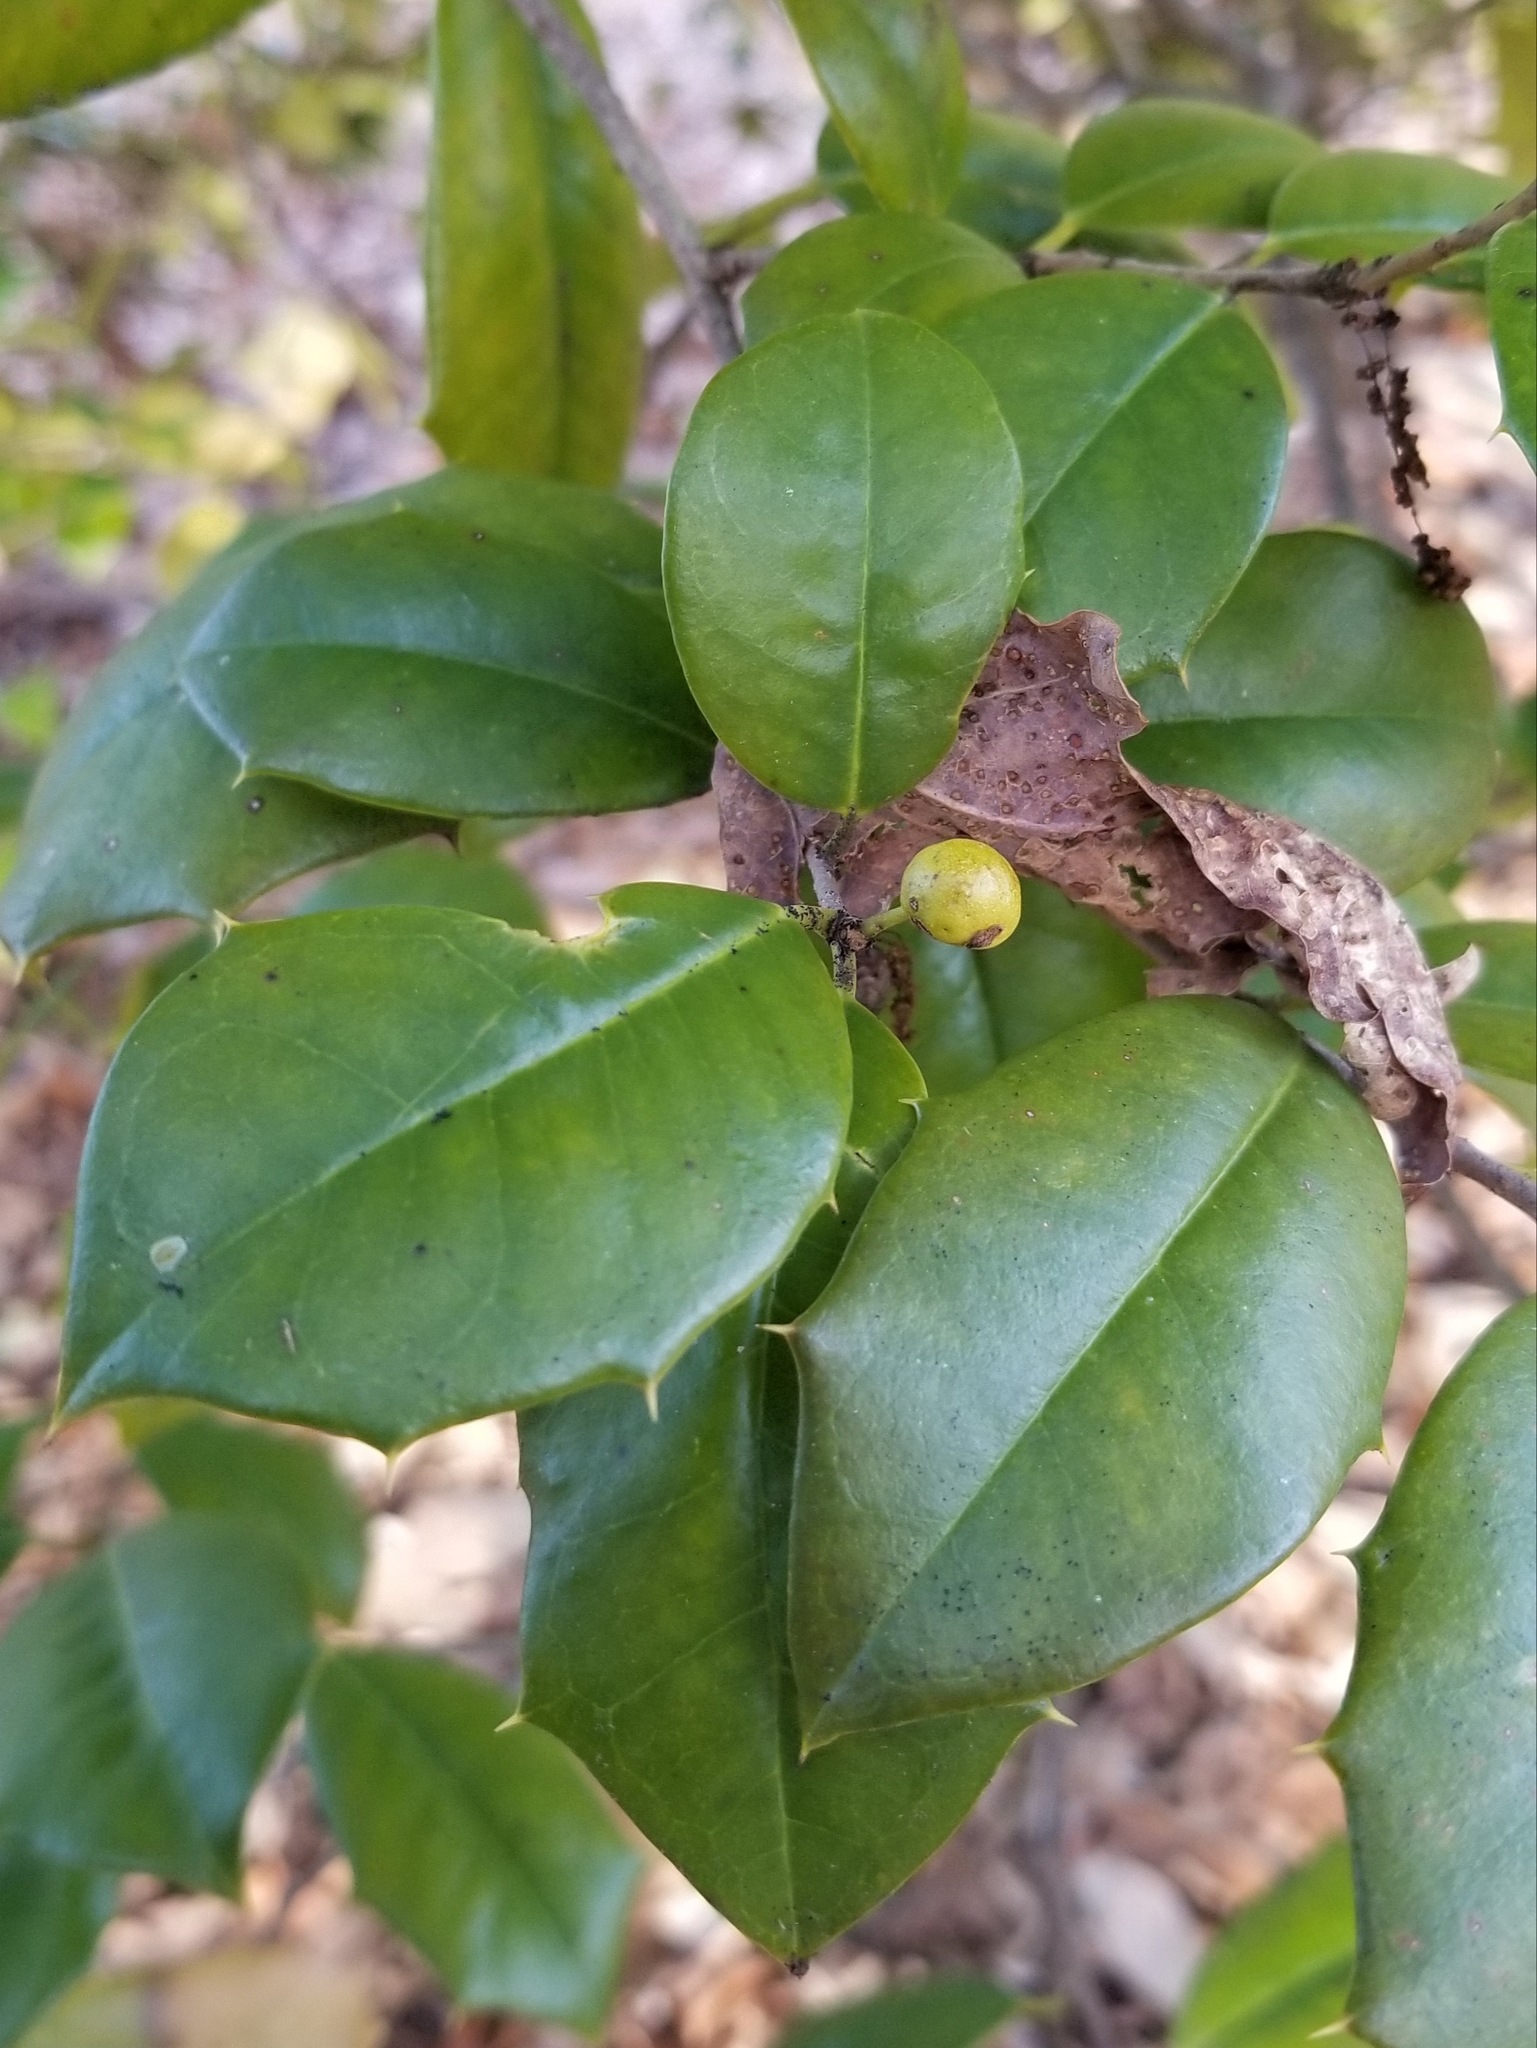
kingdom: Plantae
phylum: Tracheophyta
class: Magnoliopsida
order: Aquifoliales
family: Aquifoliaceae
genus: Ilex
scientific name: Ilex opaca
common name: American holly
